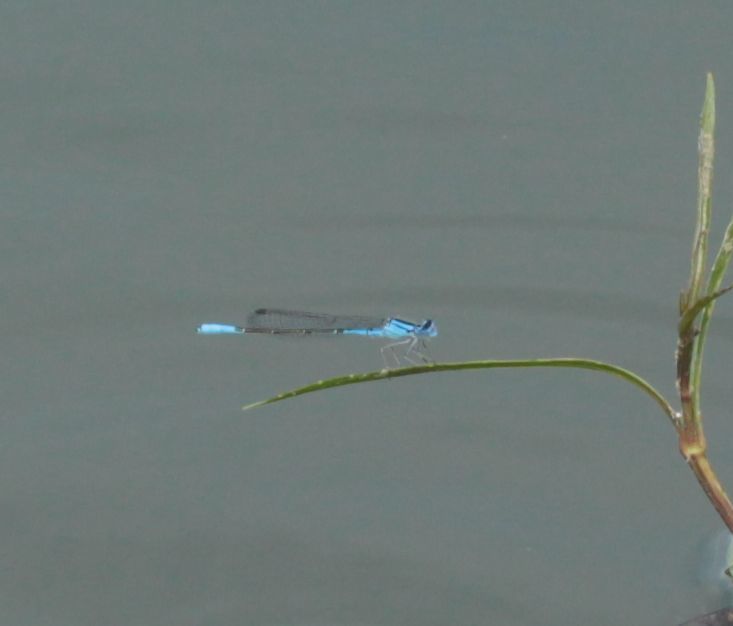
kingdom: Animalia
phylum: Arthropoda
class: Insecta
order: Odonata
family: Coenagrionidae
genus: Enallagma
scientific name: Enallagma aspersum
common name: Azure bluet
